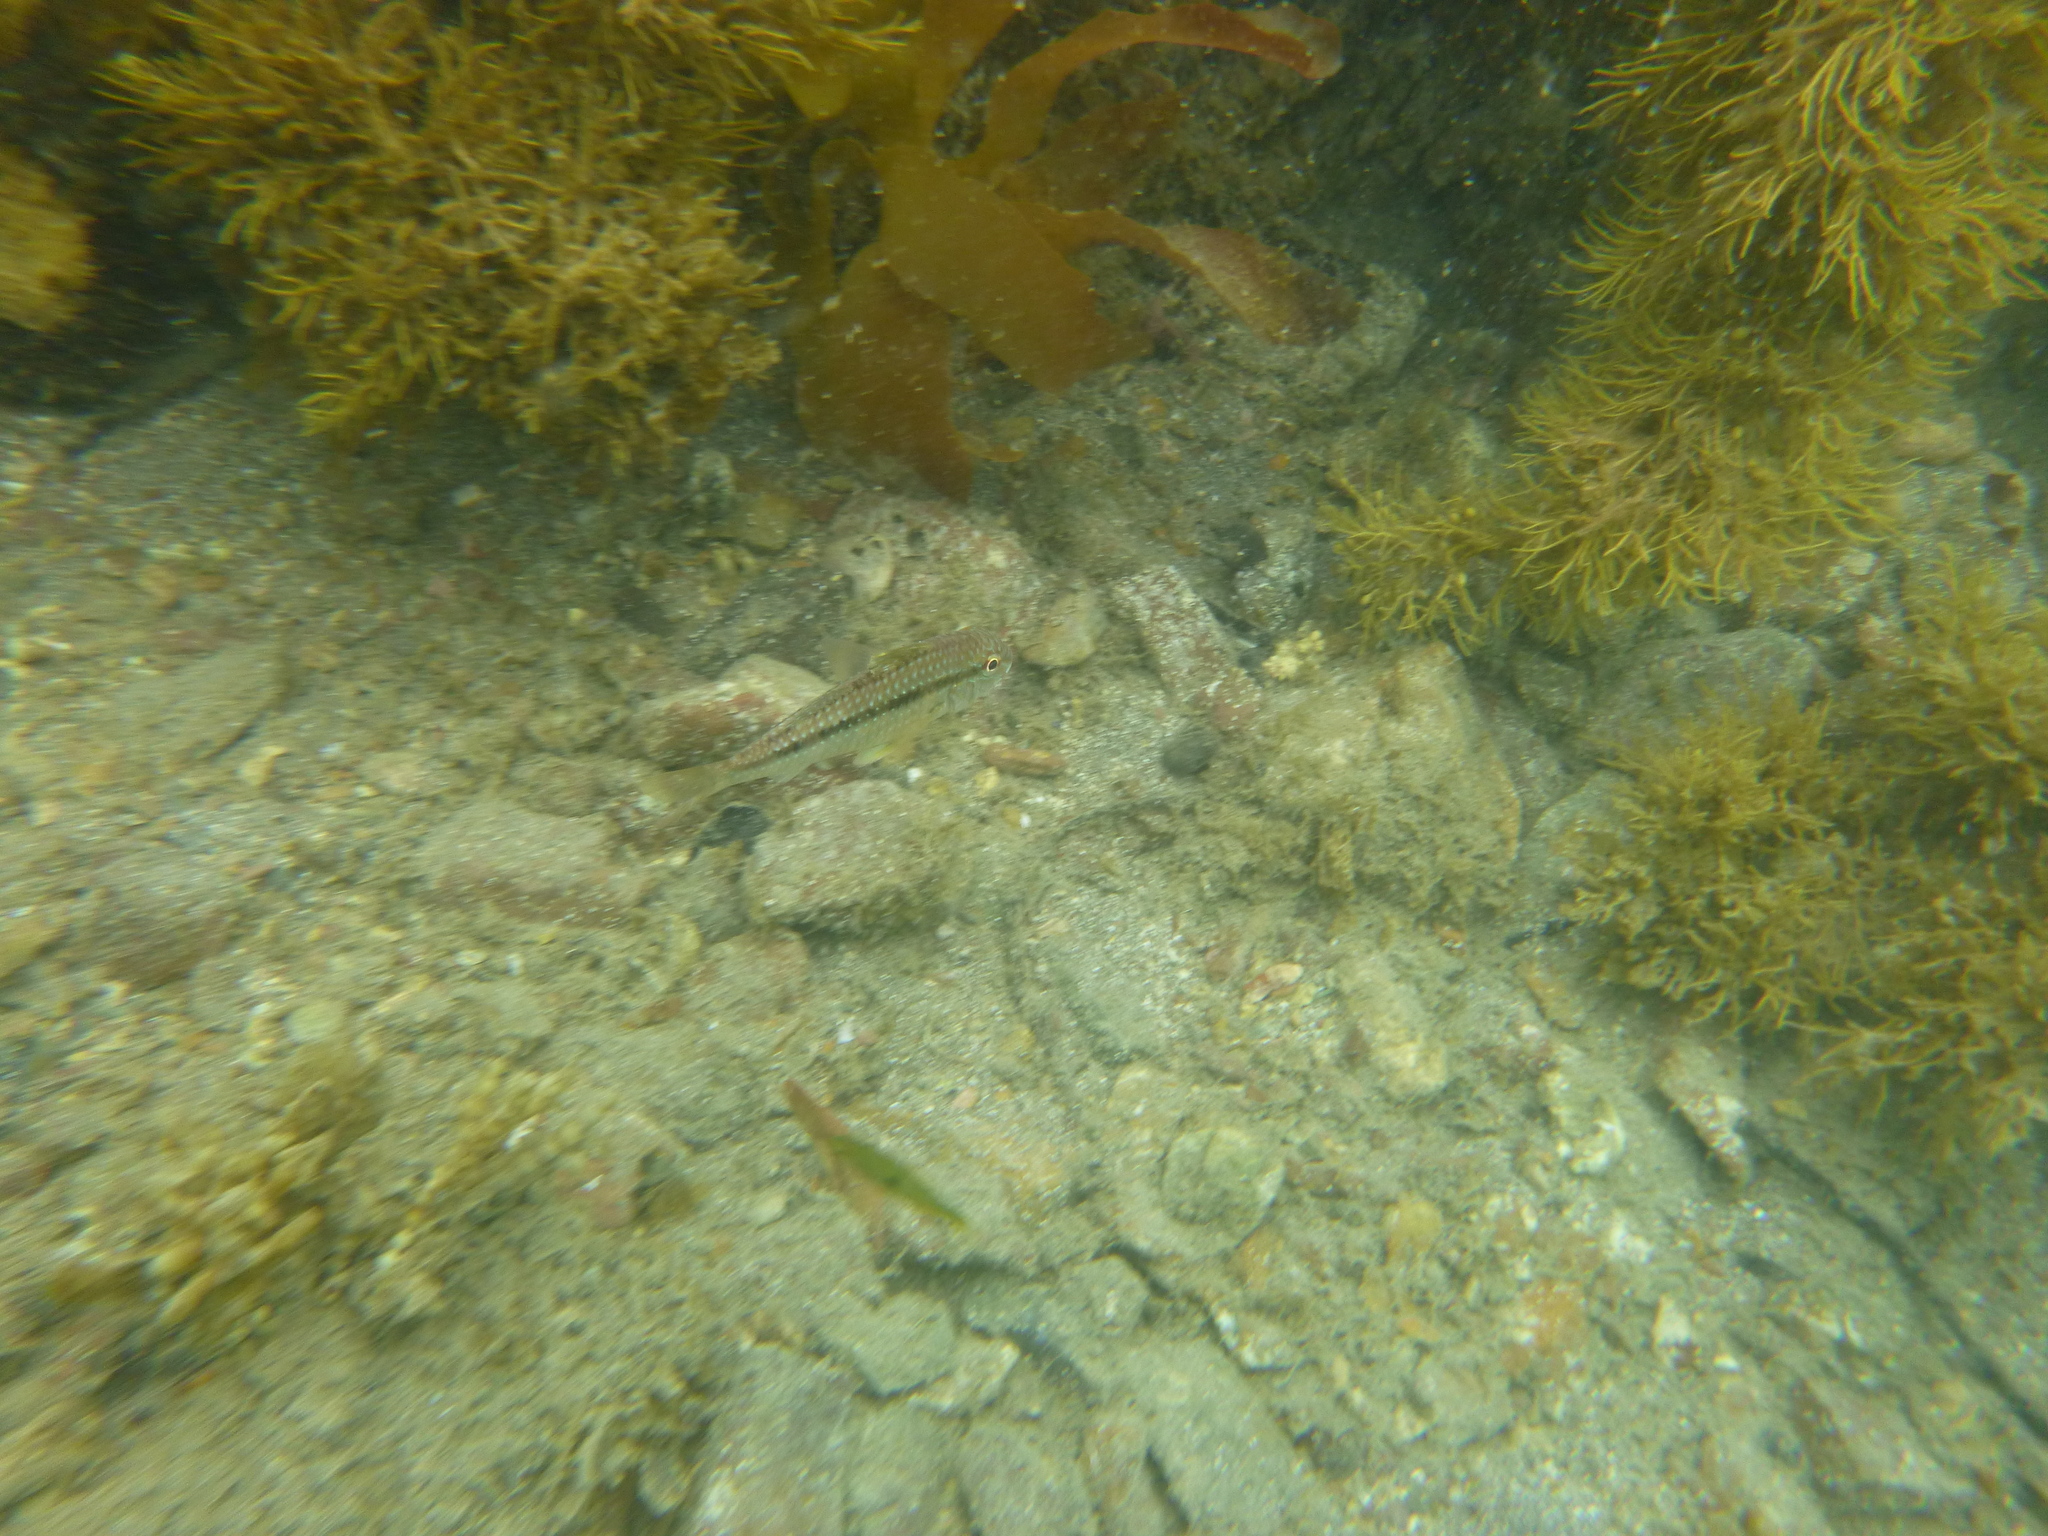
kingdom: Animalia
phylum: Chordata
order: Perciformes
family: Mullidae
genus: Upeneichthys
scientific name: Upeneichthys lineatus
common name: Red mullet
